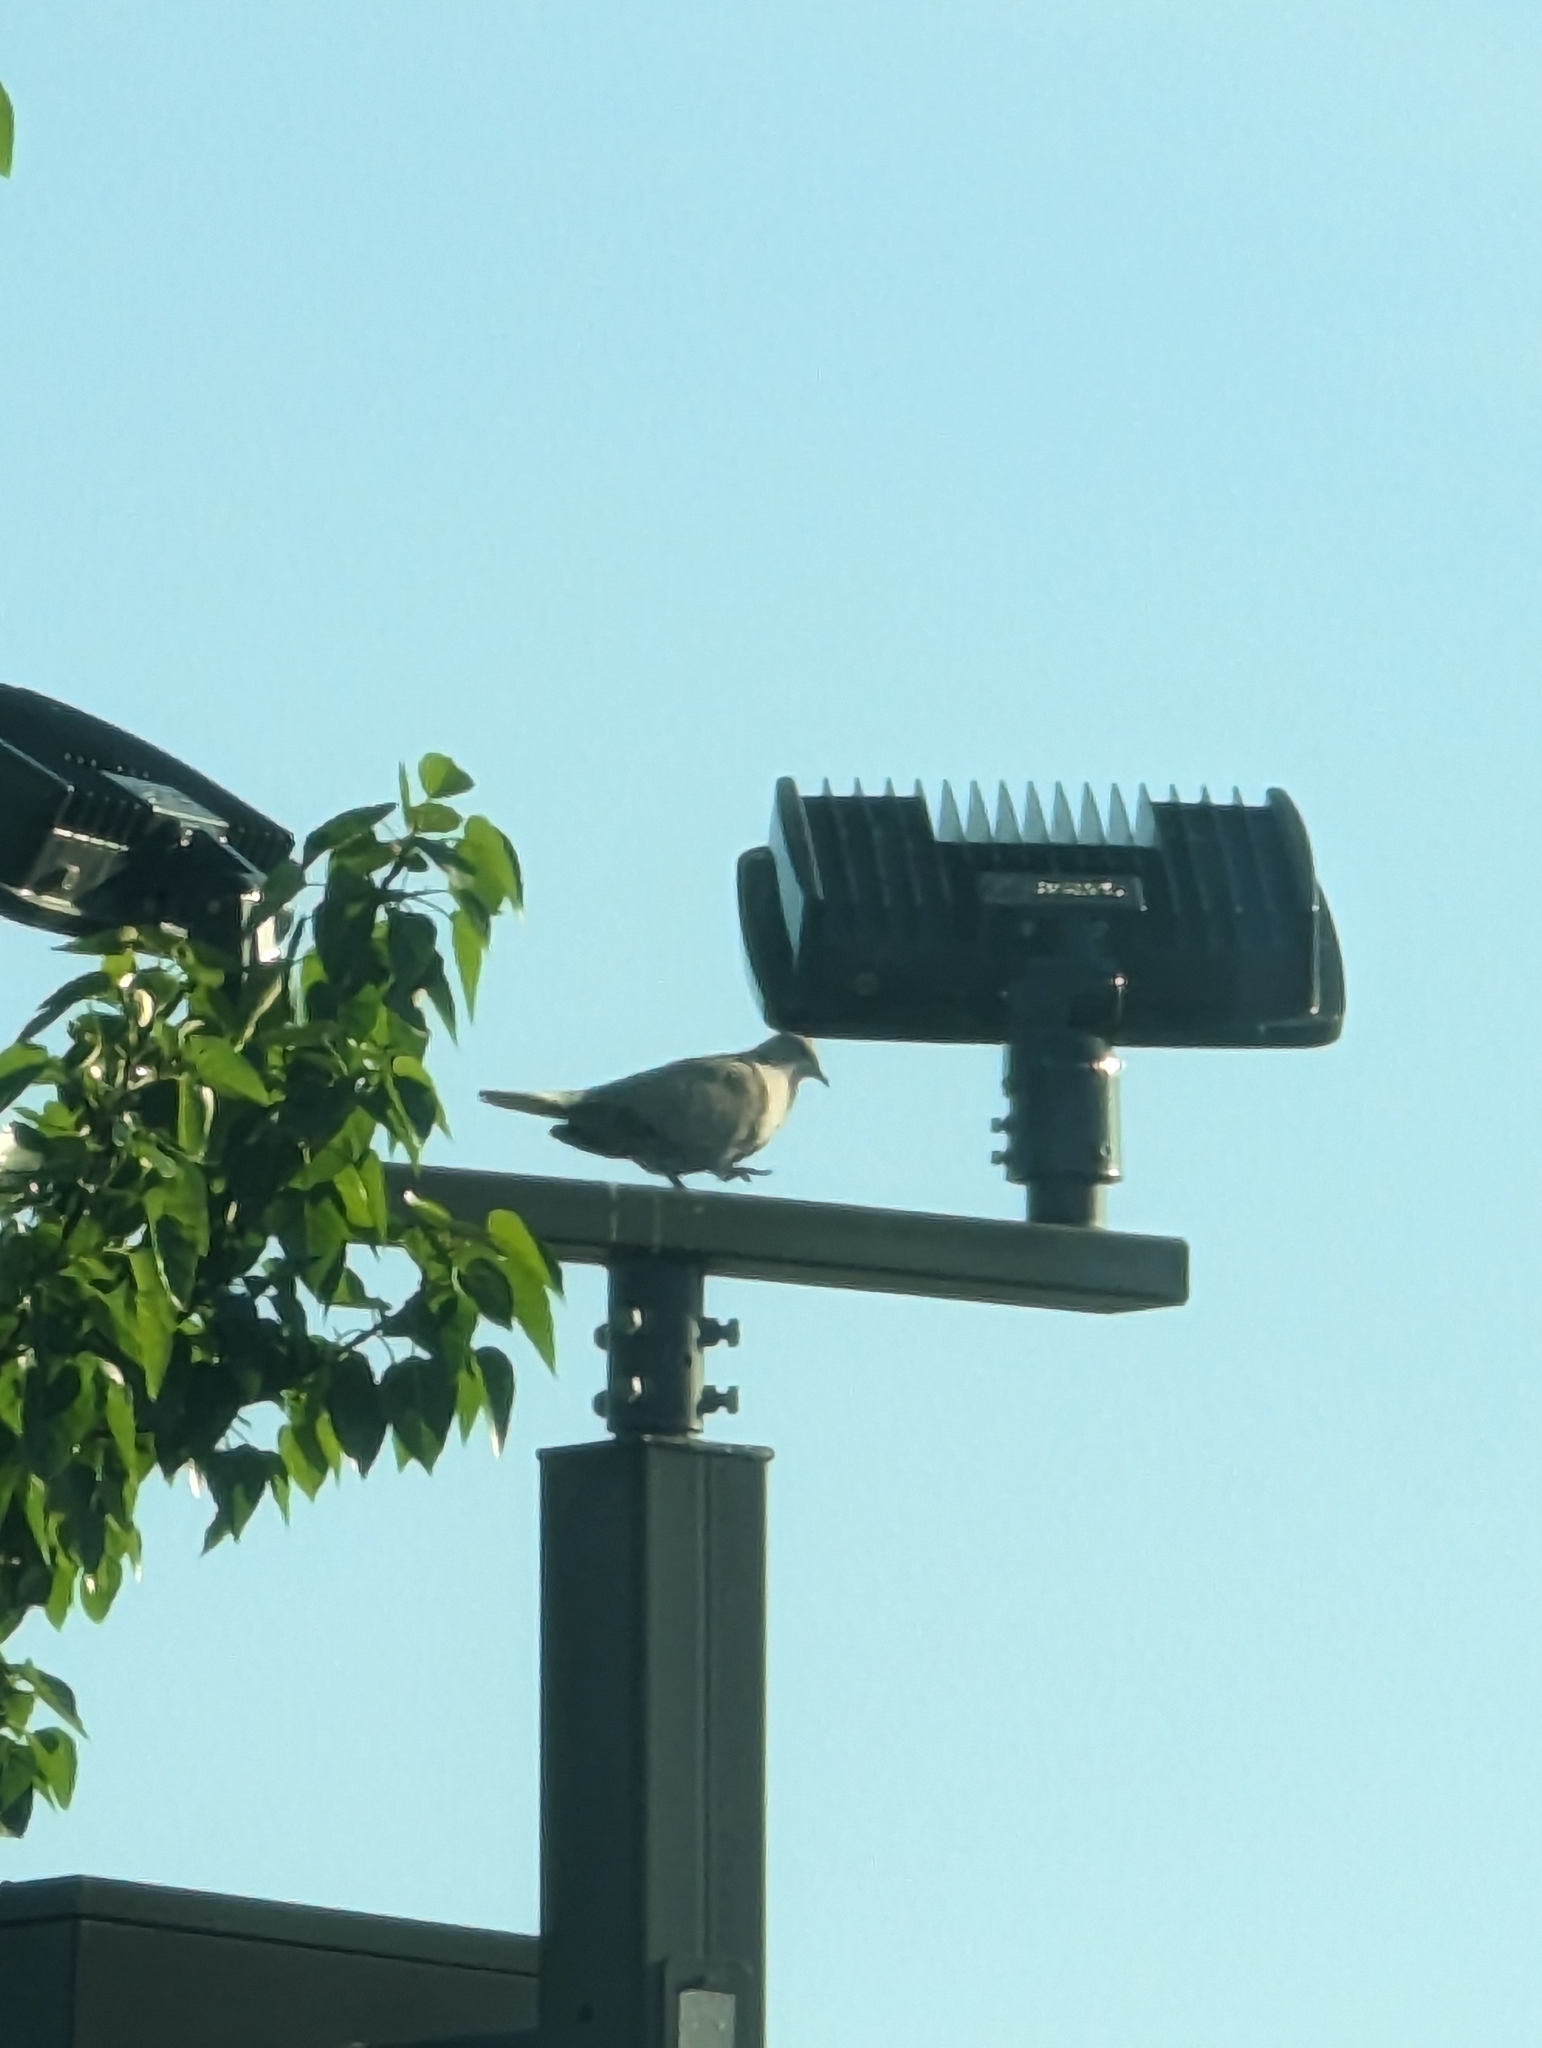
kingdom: Animalia
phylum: Chordata
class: Aves
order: Columbiformes
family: Columbidae
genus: Streptopelia
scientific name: Streptopelia decaocto
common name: Eurasian collared dove
